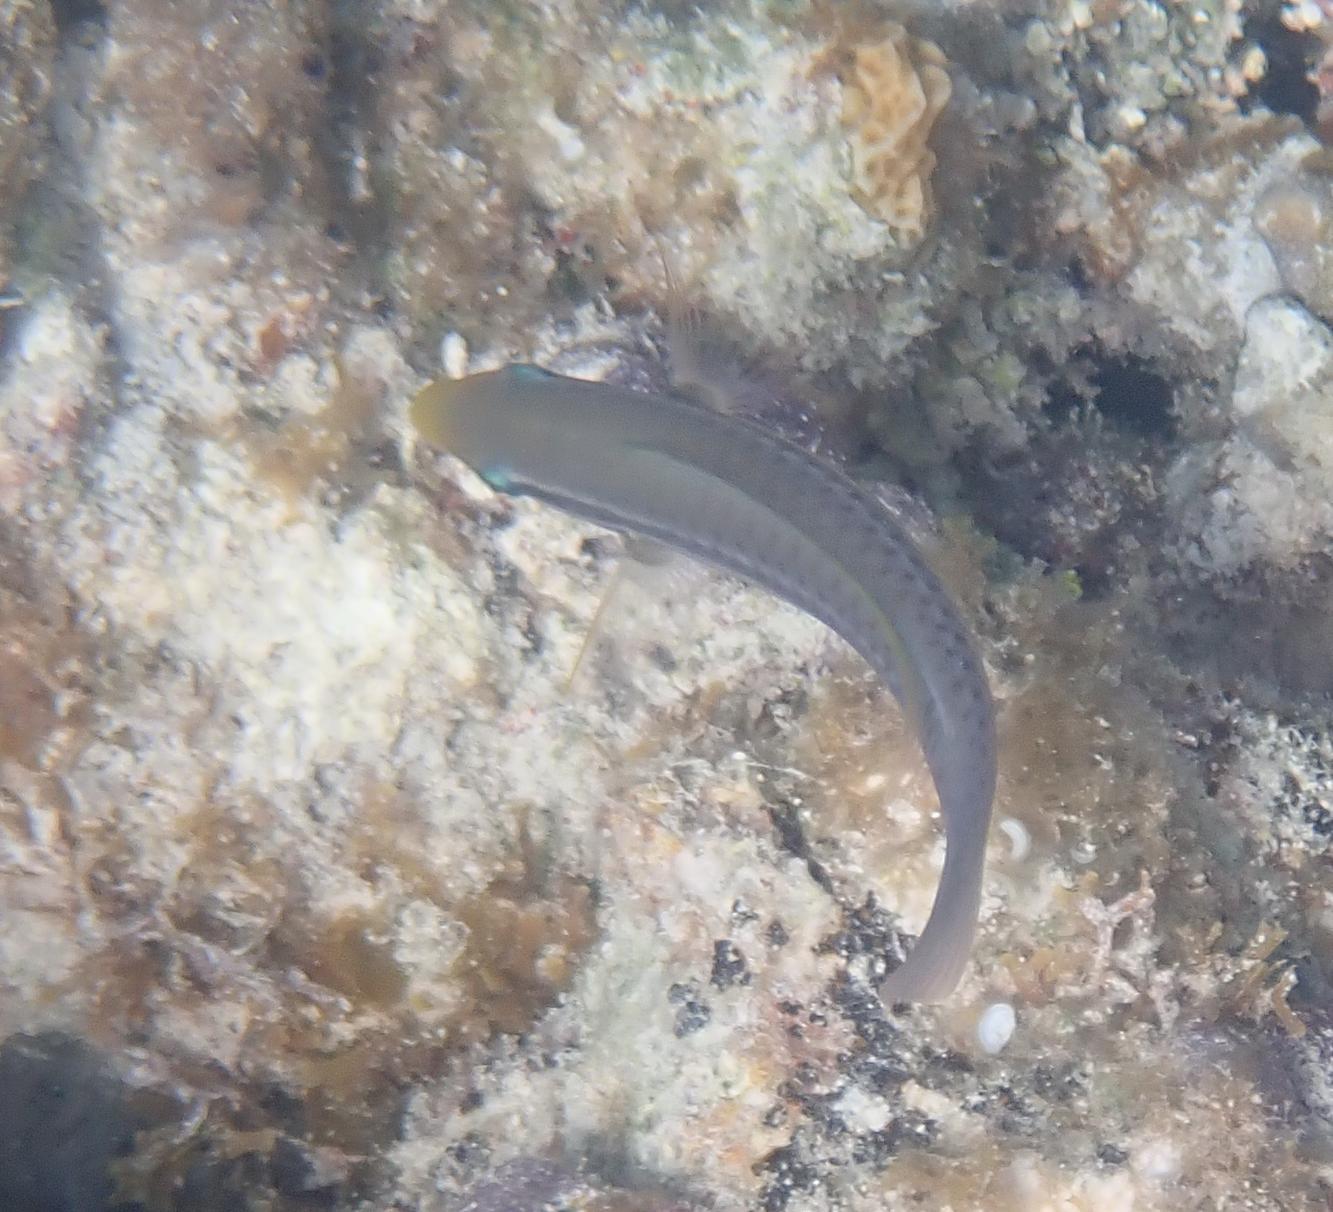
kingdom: Animalia
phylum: Chordata
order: Perciformes
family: Scaridae
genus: Scarus
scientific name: Scarus iseri
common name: Striped parrotfish
